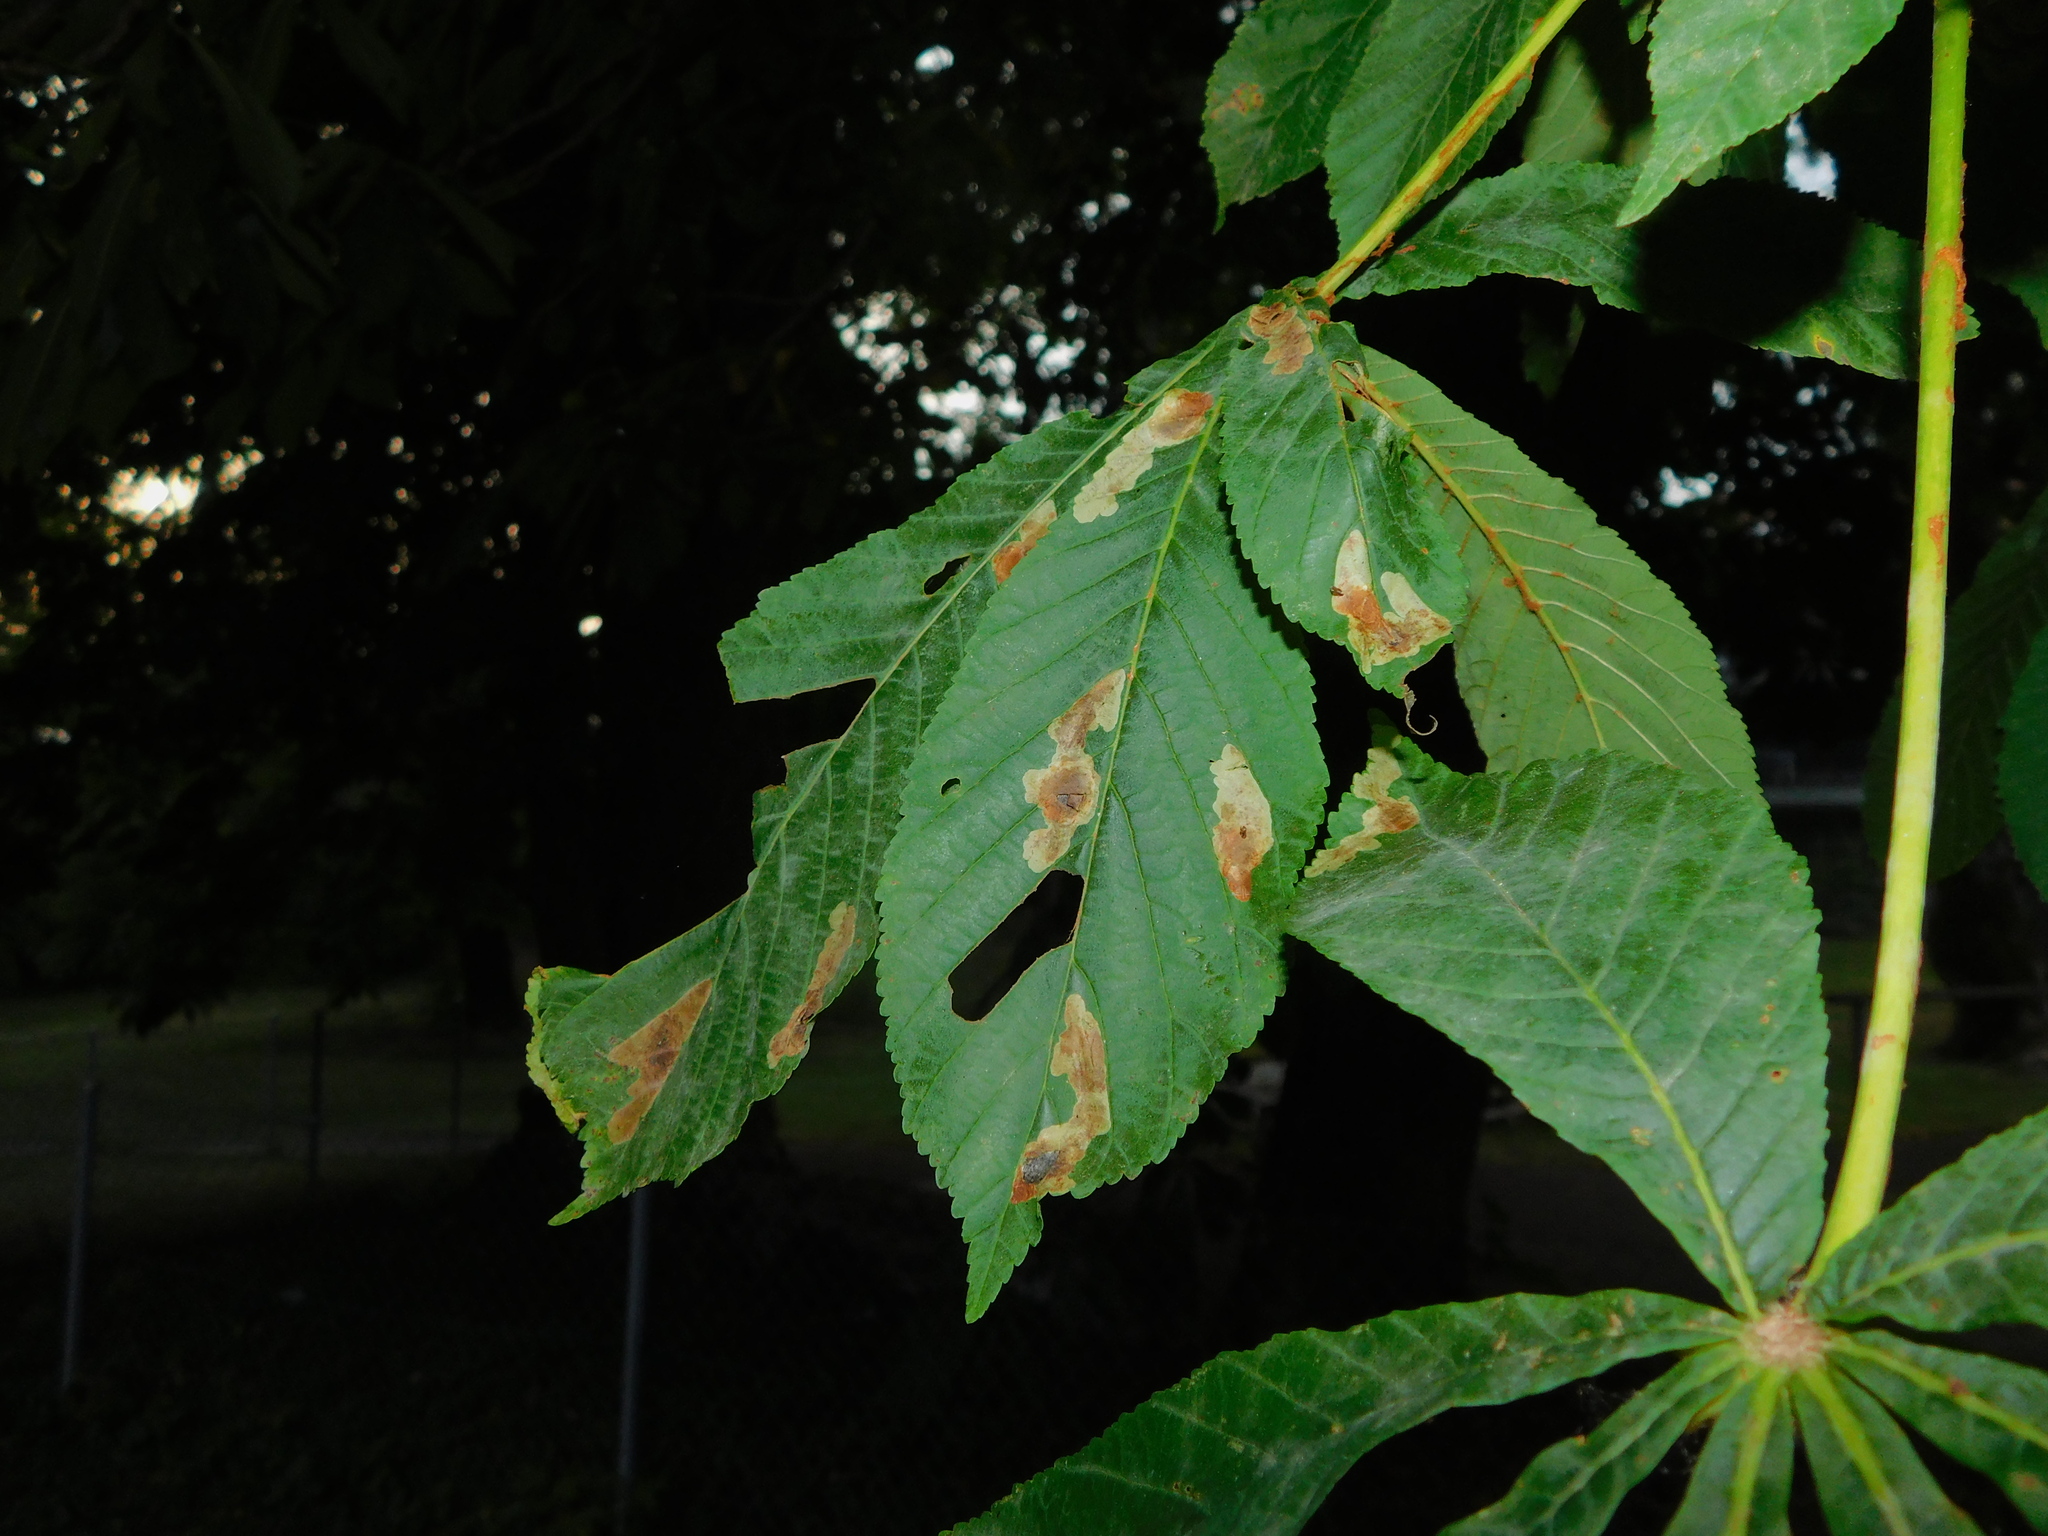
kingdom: Animalia
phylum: Arthropoda
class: Insecta
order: Lepidoptera
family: Gracillariidae
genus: Cameraria
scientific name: Cameraria ohridella
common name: Horse-chestnut leaf-miner
